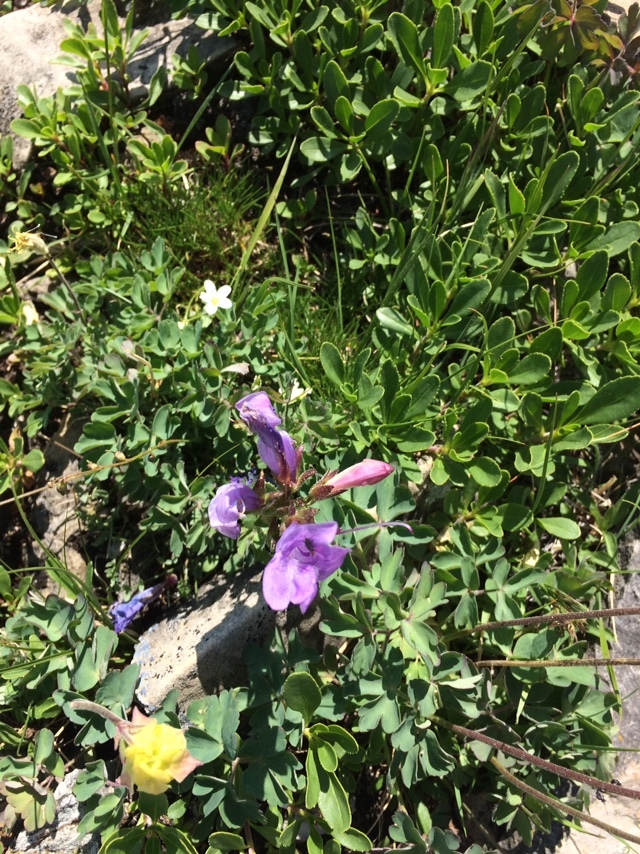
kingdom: Plantae
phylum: Tracheophyta
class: Magnoliopsida
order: Lamiales
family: Plantaginaceae
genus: Penstemon
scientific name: Penstemon ellipticus
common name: Alpine beardtongue
